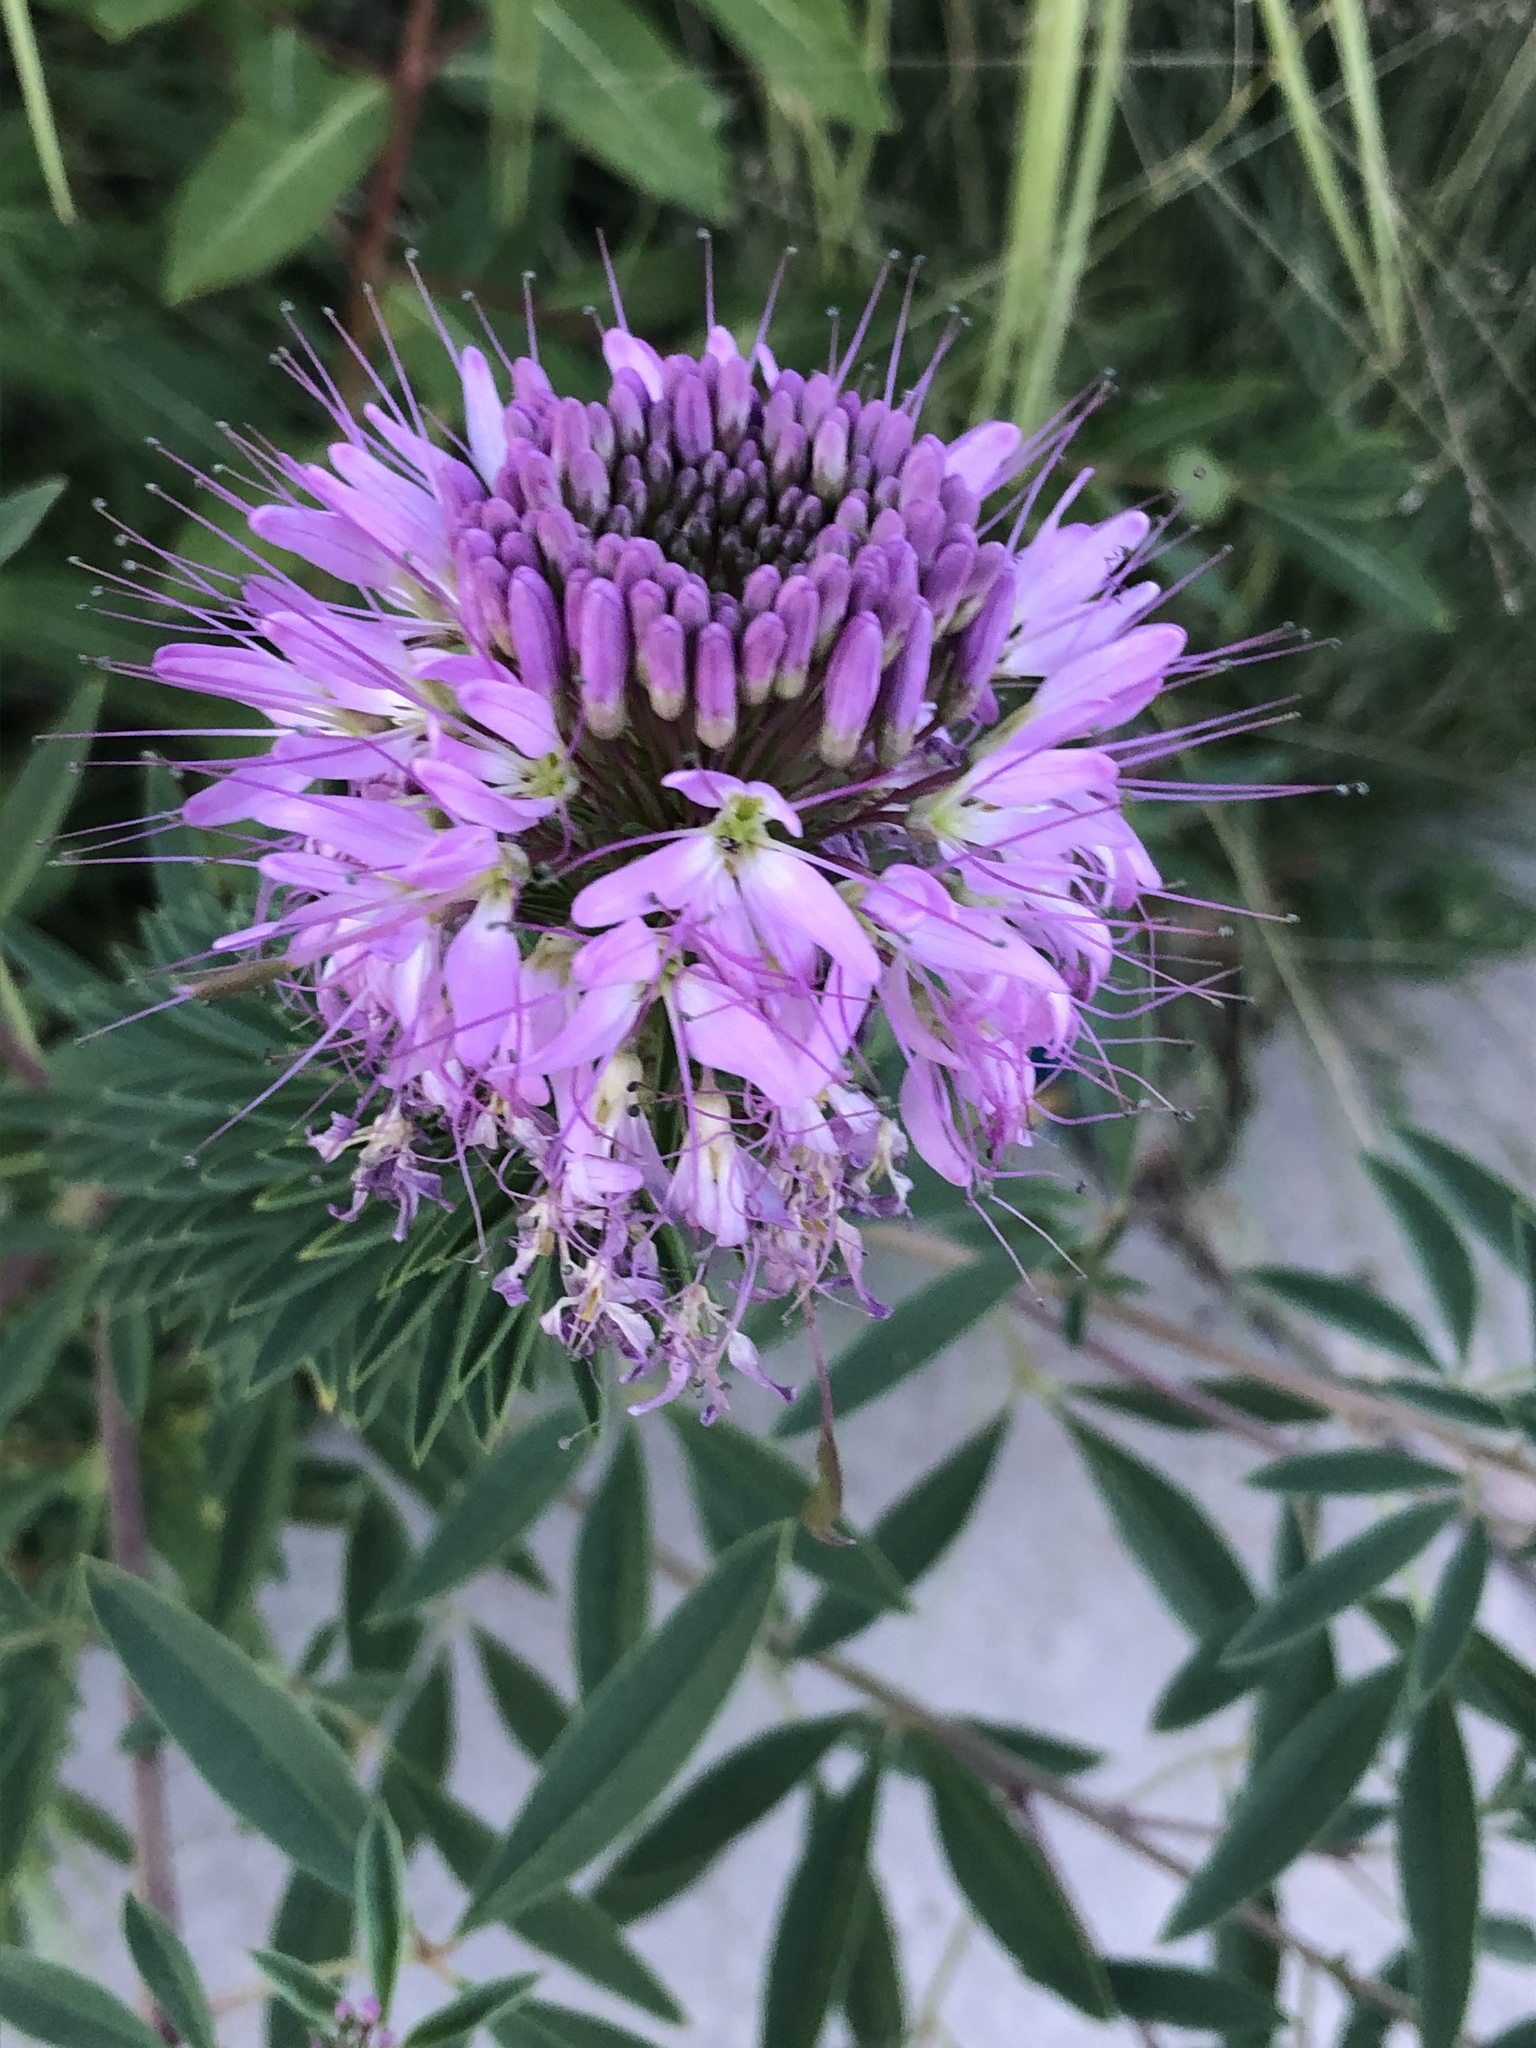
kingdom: Plantae
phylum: Tracheophyta
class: Magnoliopsida
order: Brassicales
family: Cleomaceae
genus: Cleomella
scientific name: Cleomella serrulata
